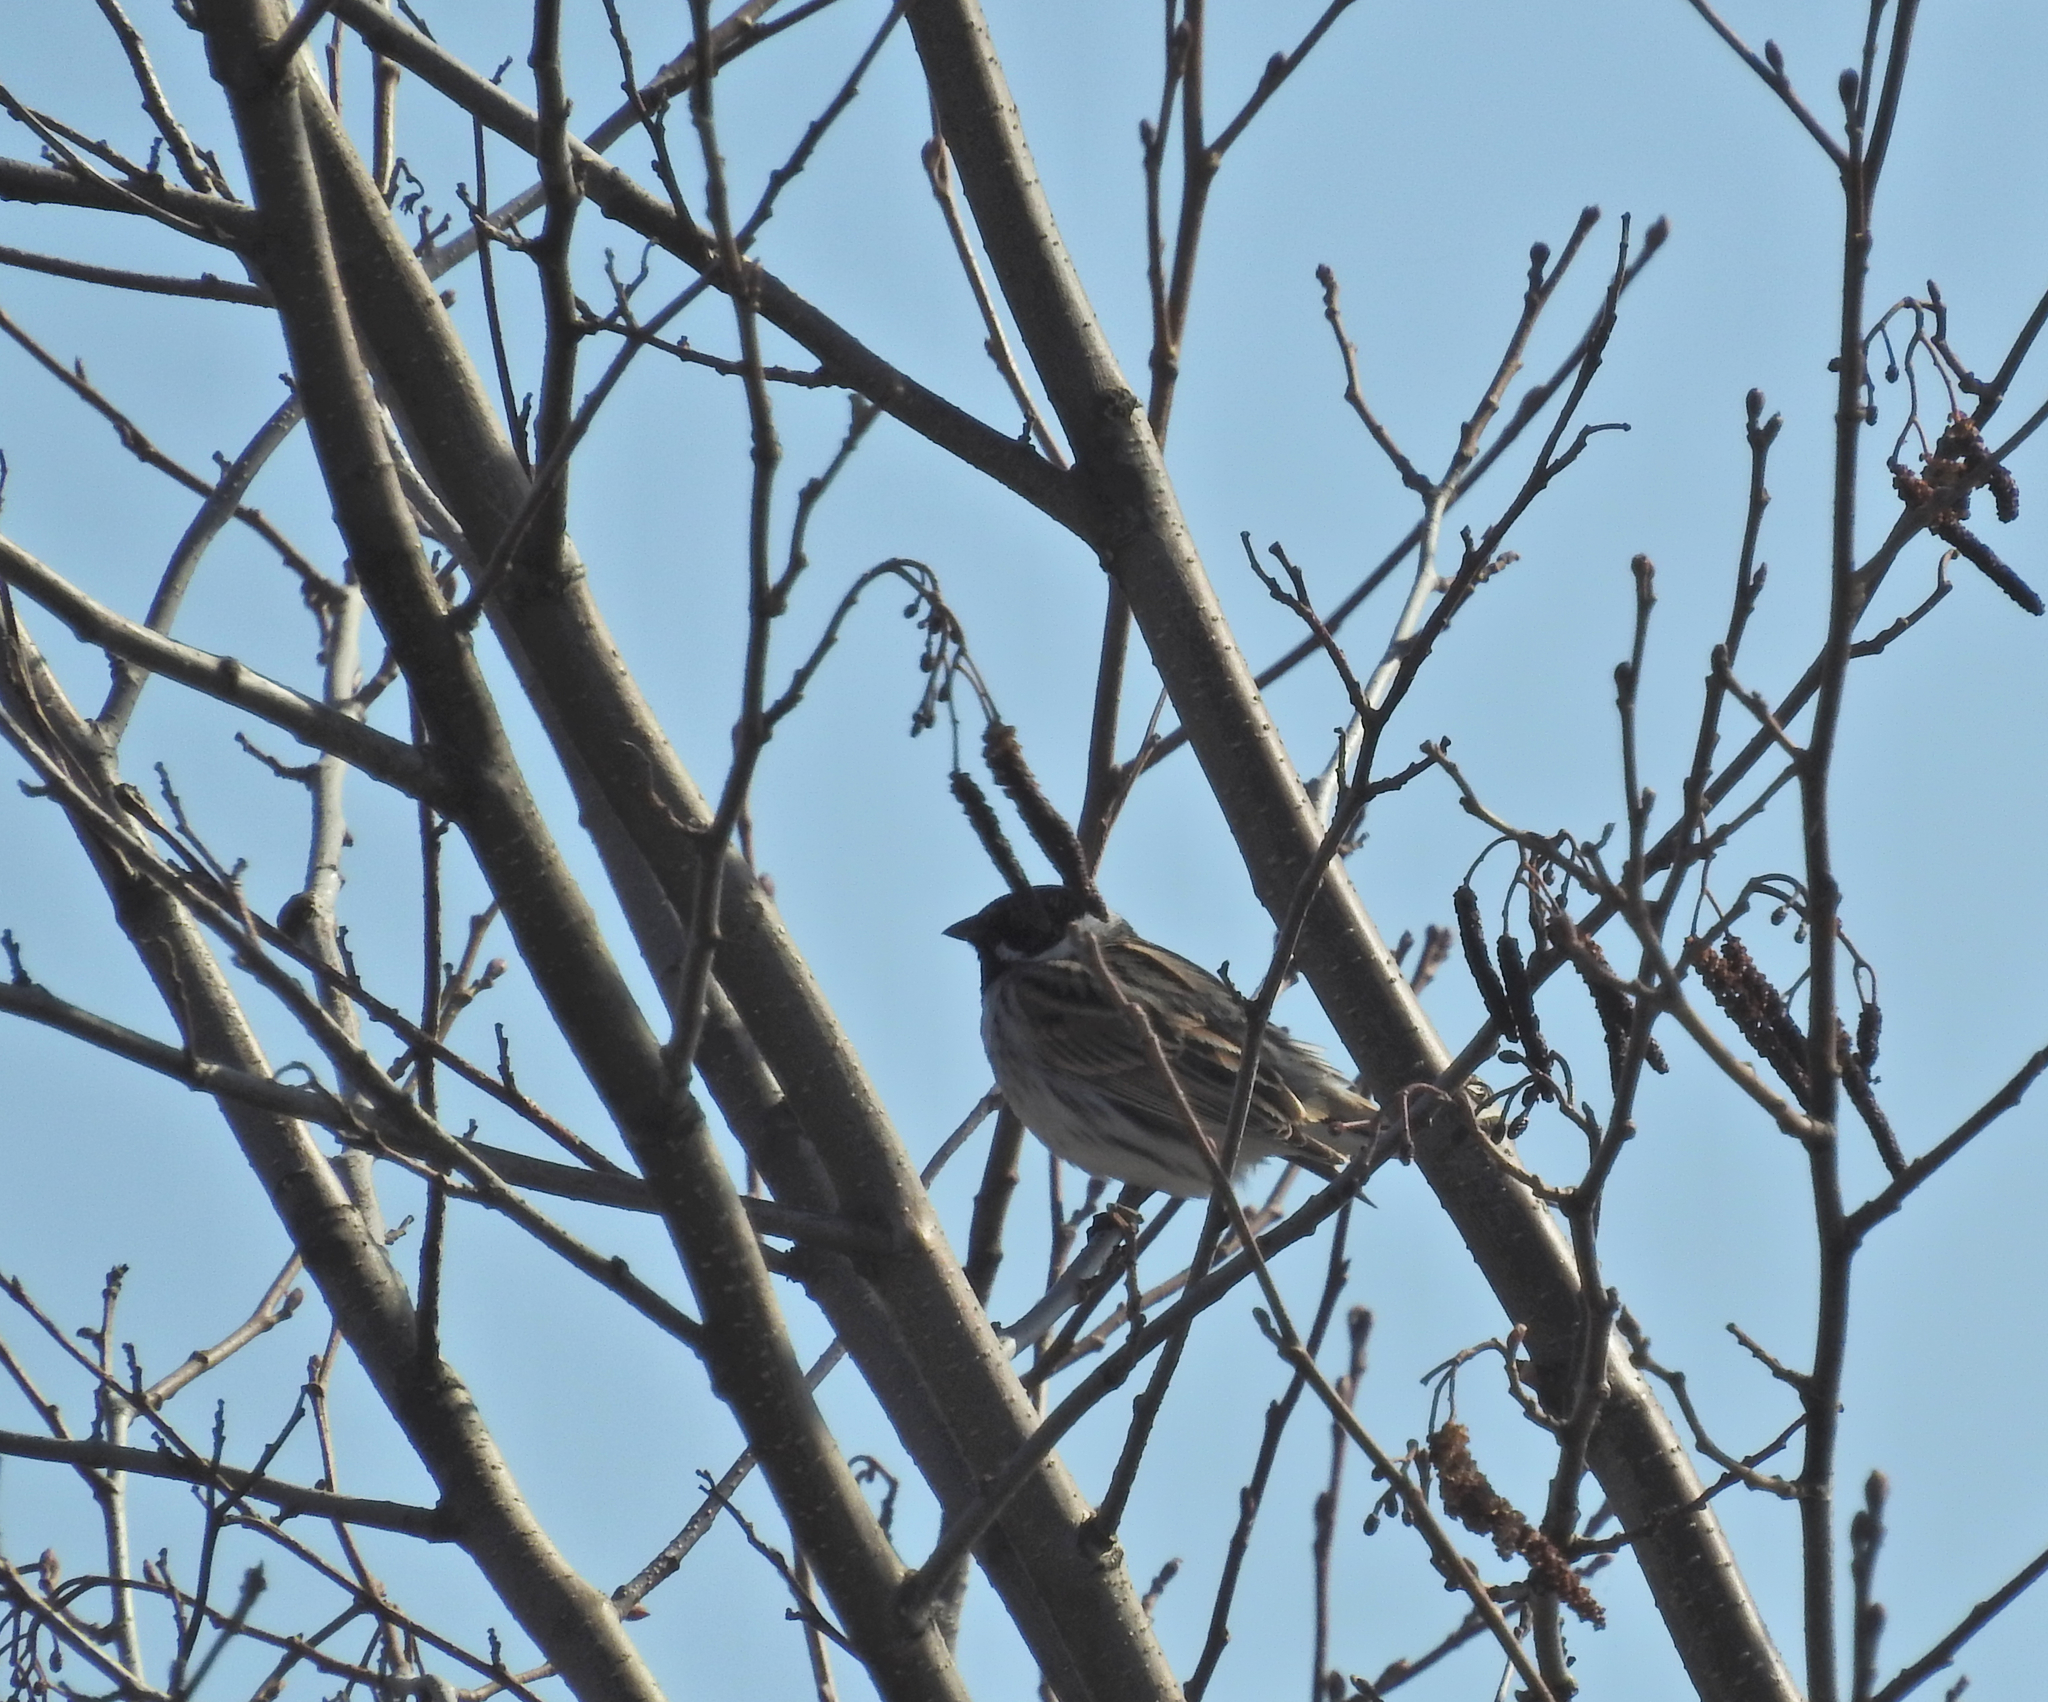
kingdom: Animalia
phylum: Chordata
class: Aves
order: Passeriformes
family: Emberizidae
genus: Emberiza
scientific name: Emberiza schoeniclus
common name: Reed bunting
